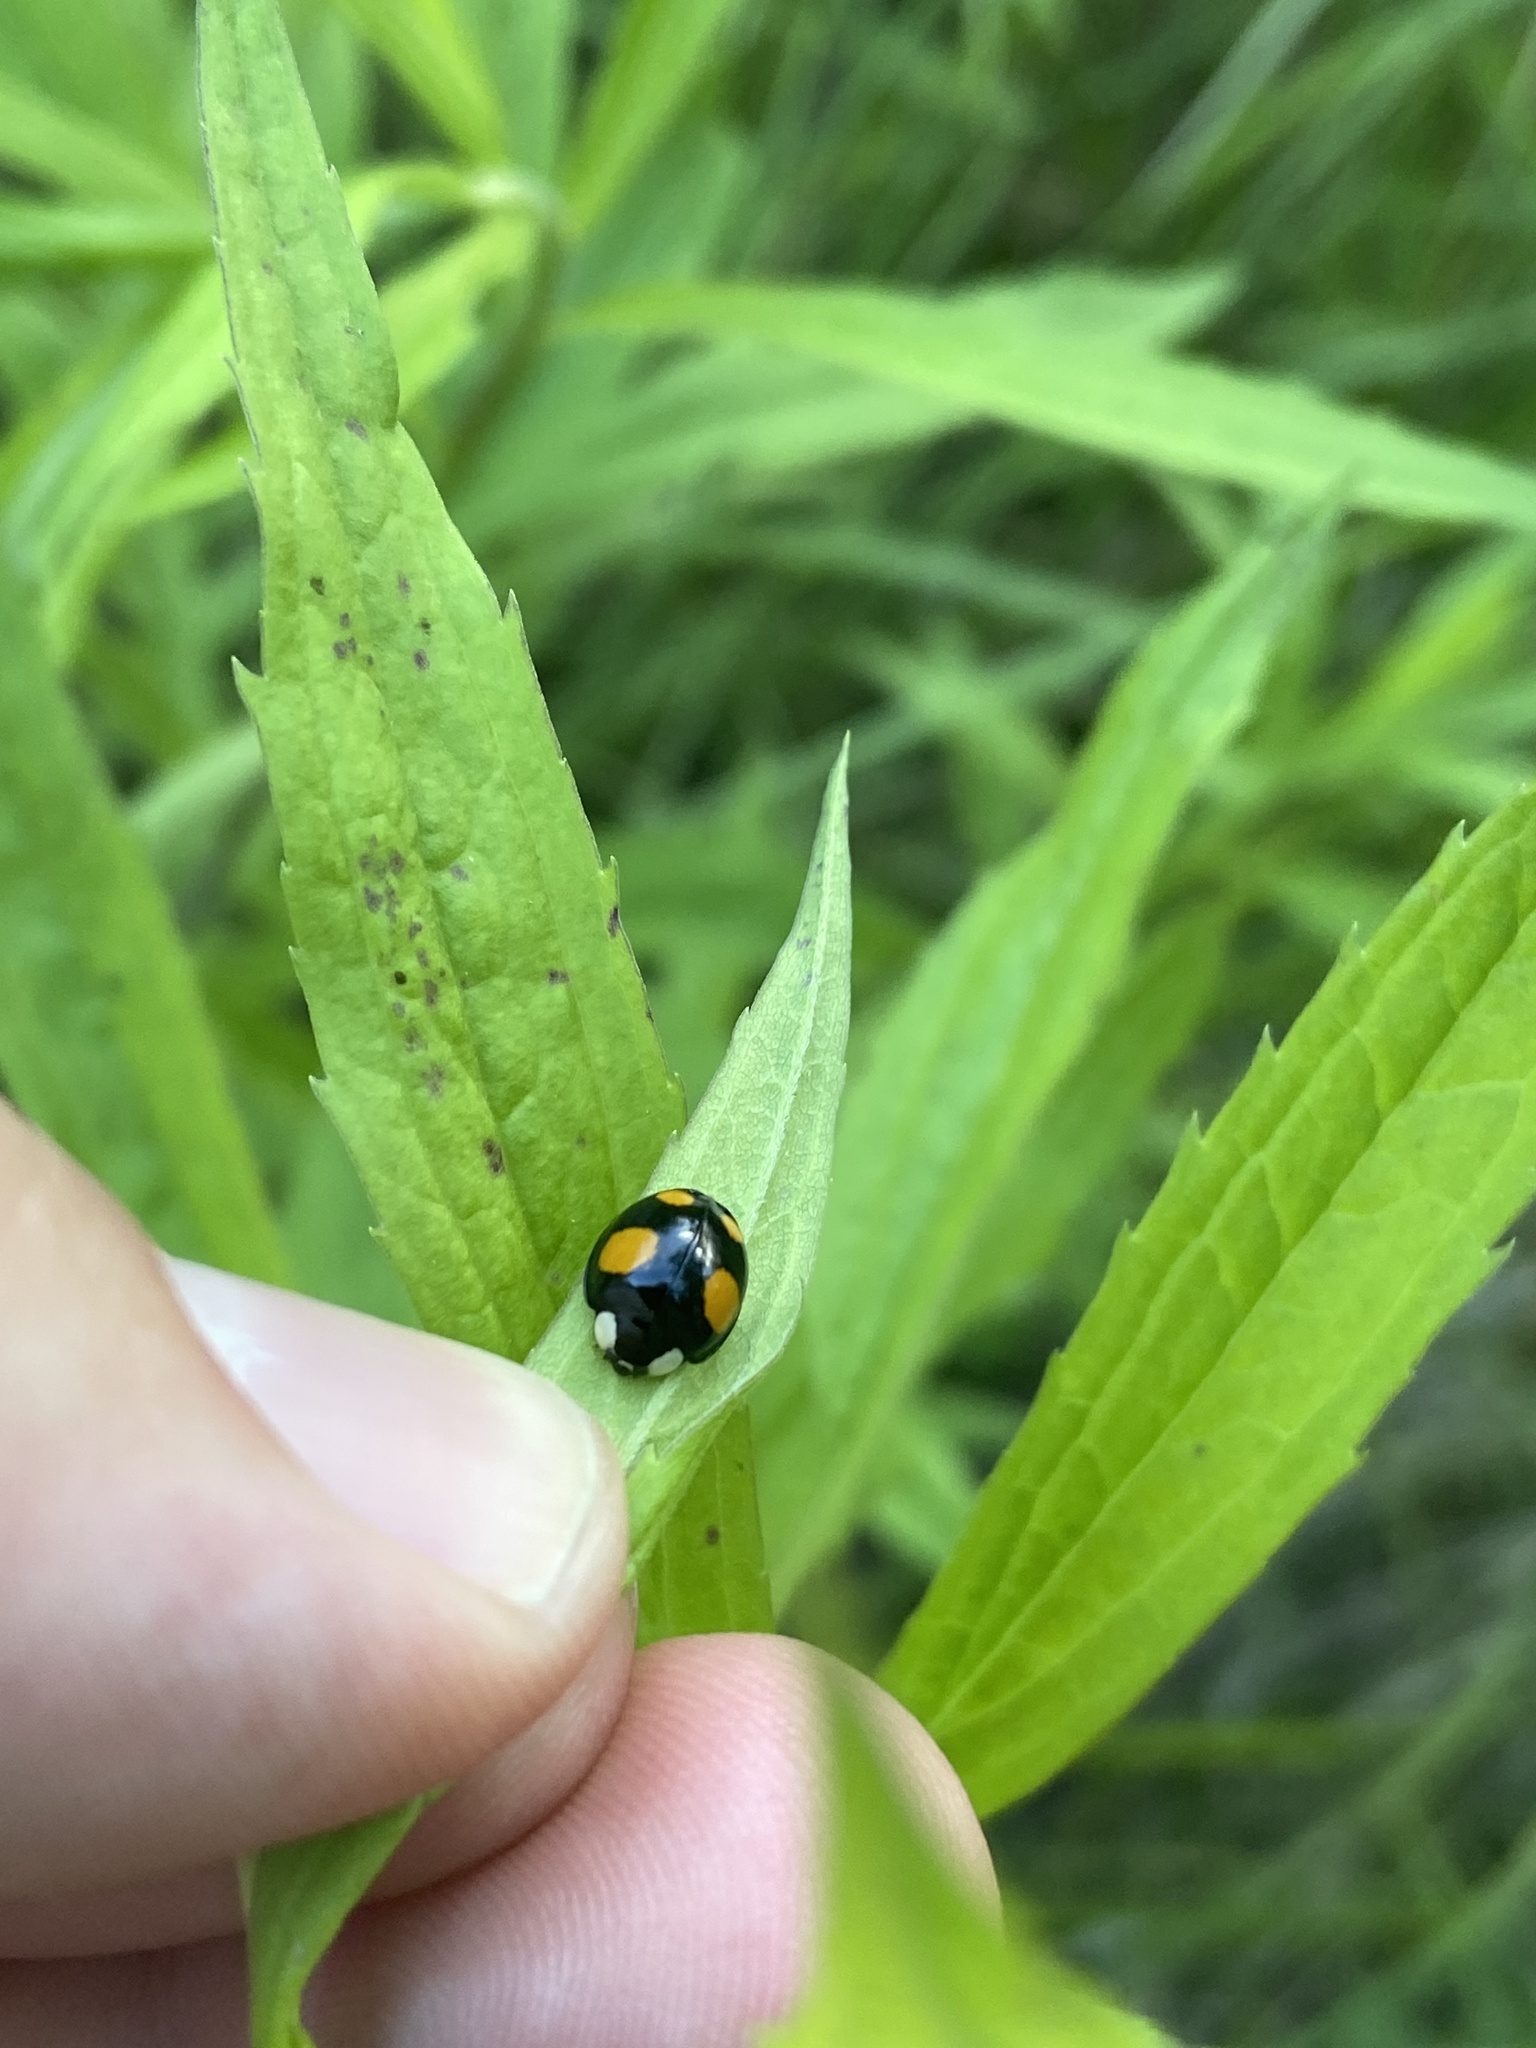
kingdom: Animalia
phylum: Arthropoda
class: Insecta
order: Coleoptera
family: Coccinellidae
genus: Harmonia
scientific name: Harmonia axyridis
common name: Harlequin ladybird
